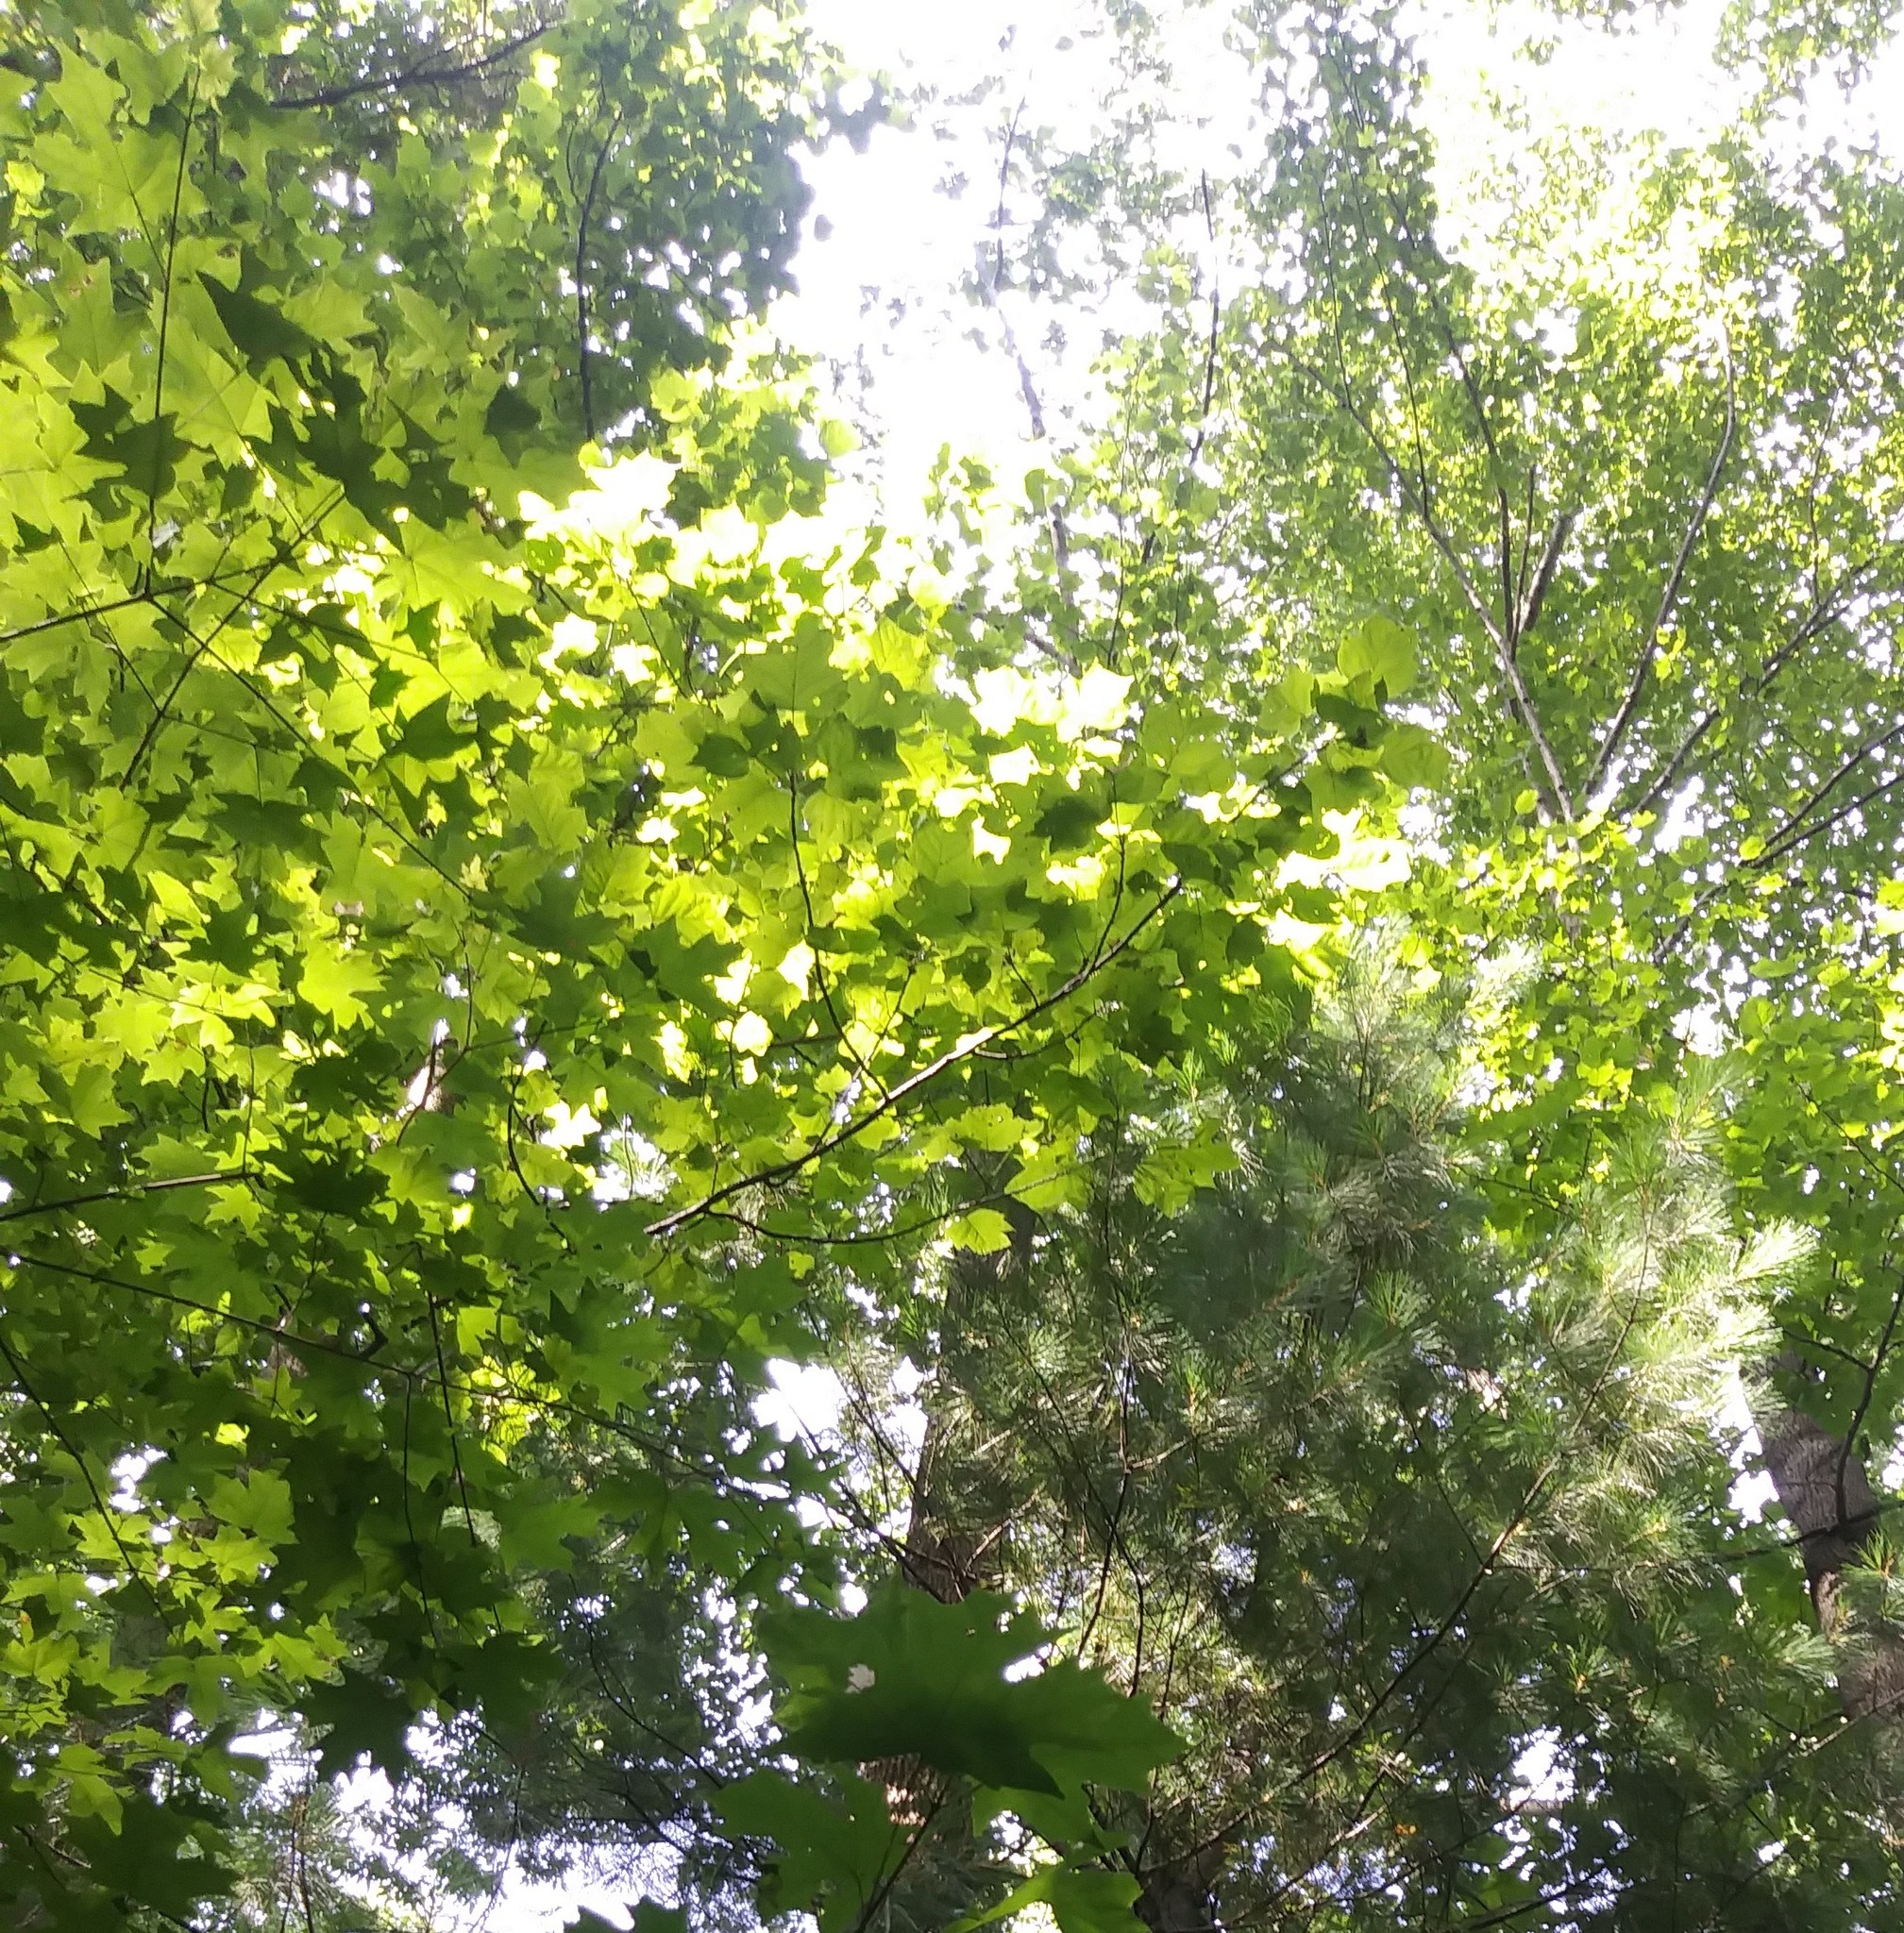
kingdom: Plantae
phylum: Tracheophyta
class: Magnoliopsida
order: Magnoliales
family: Magnoliaceae
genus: Liriodendron
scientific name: Liriodendron tulipifera
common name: Tulip tree
